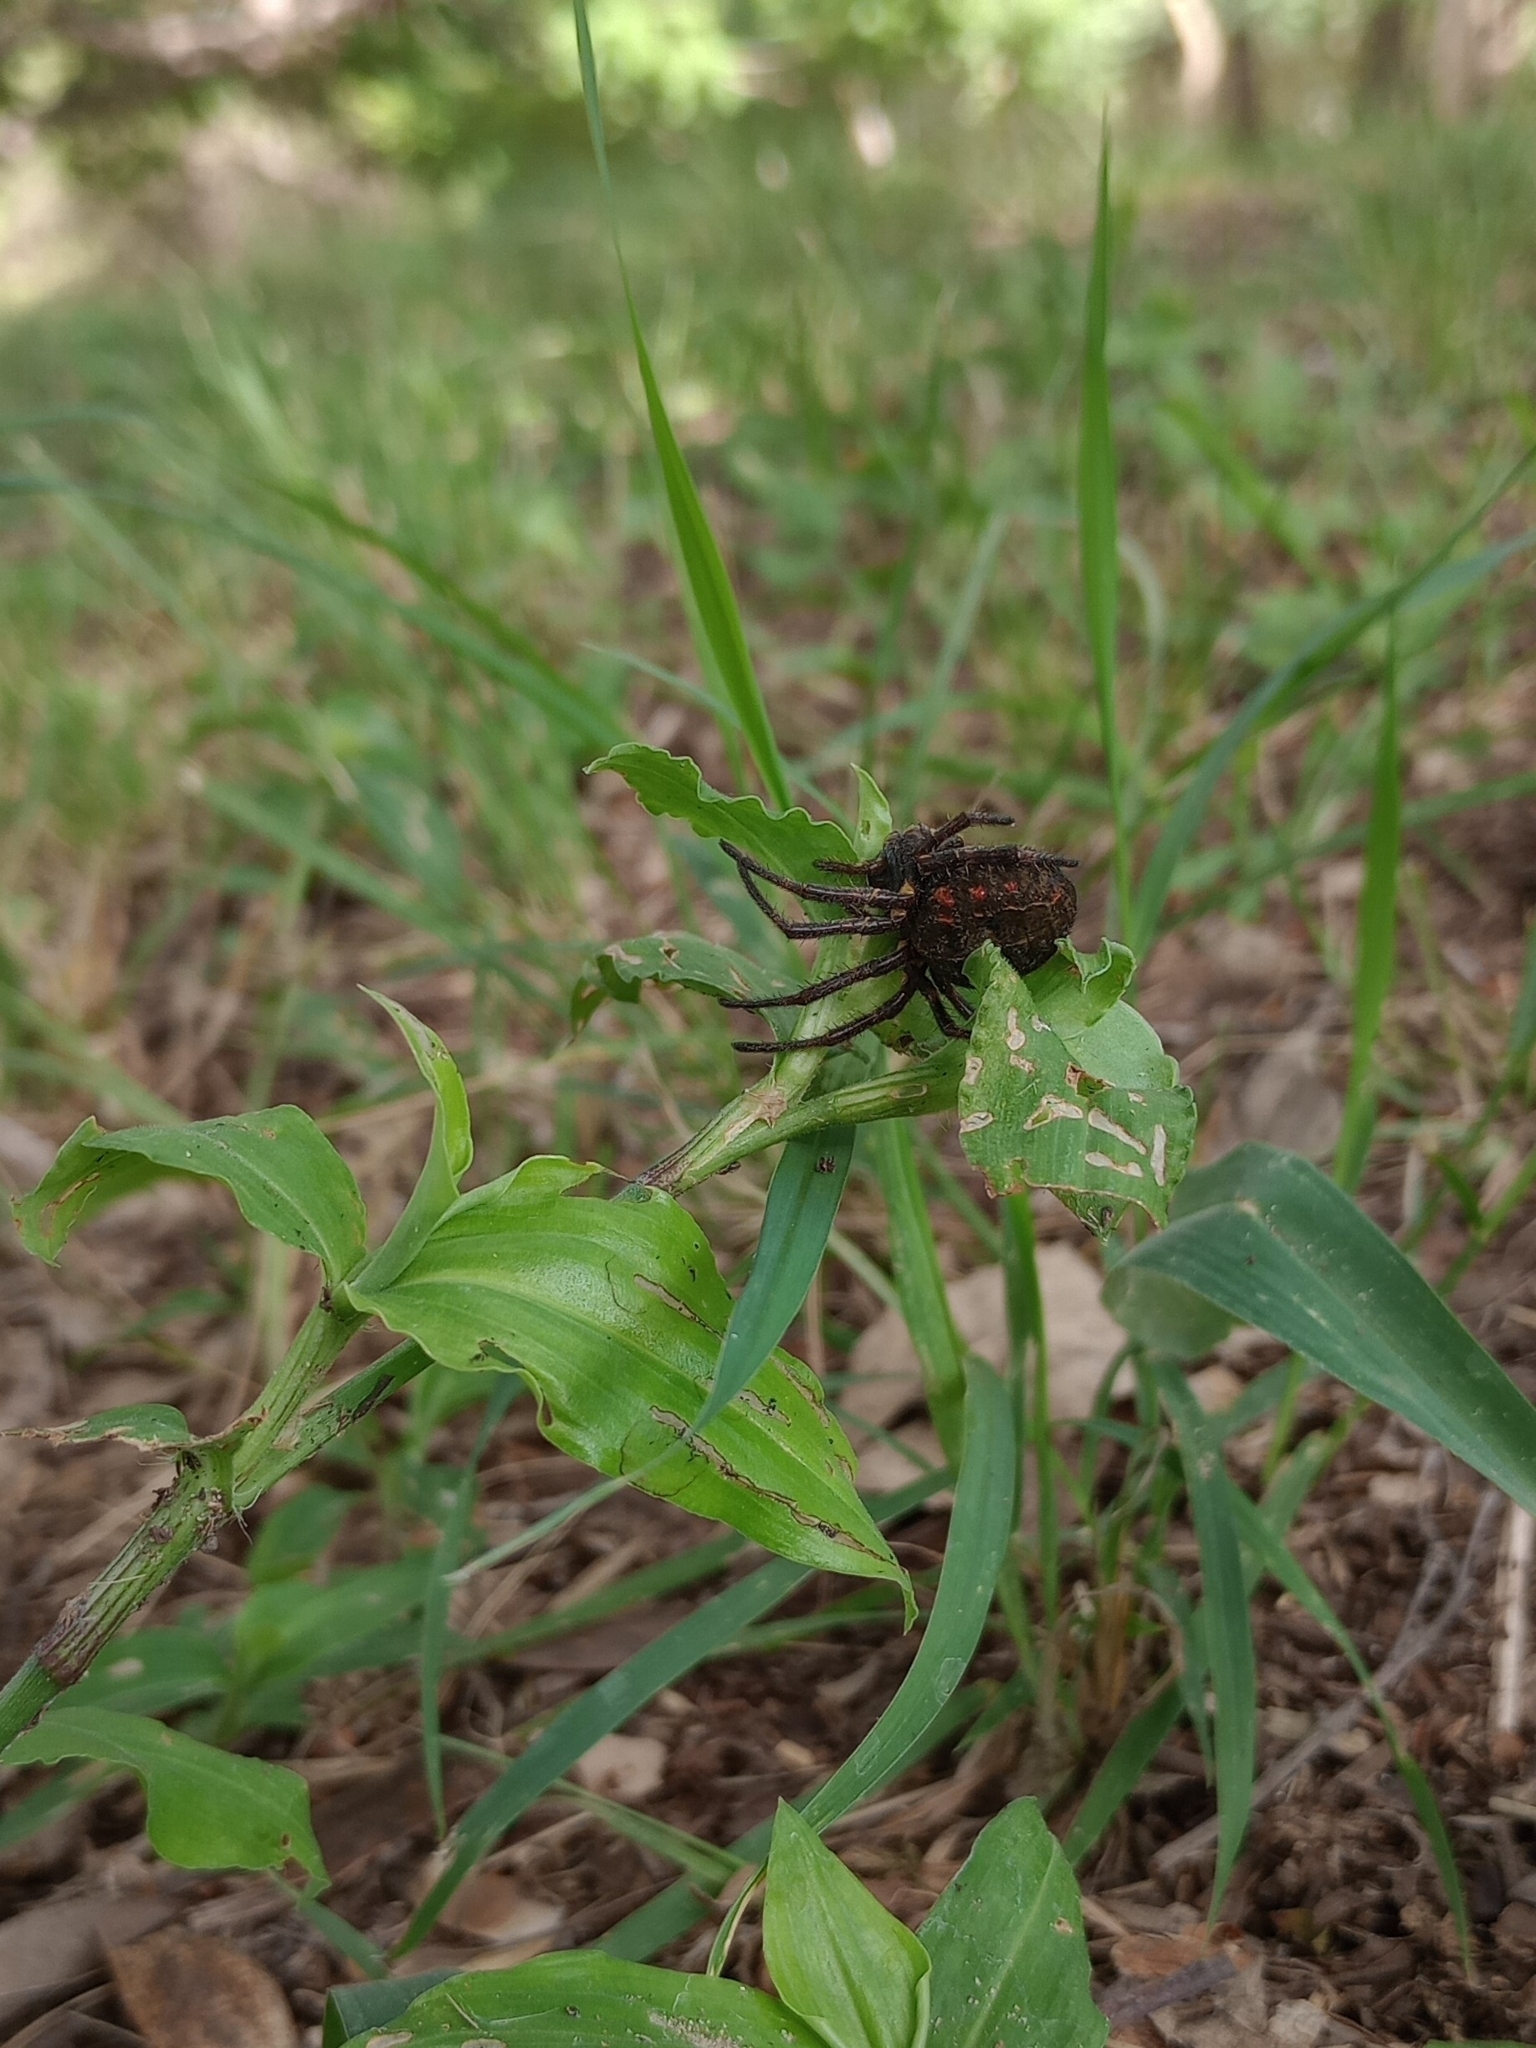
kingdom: Animalia
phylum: Arthropoda
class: Arachnida
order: Araneae
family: Araneidae
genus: Parawixia
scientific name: Parawixia bistriata
